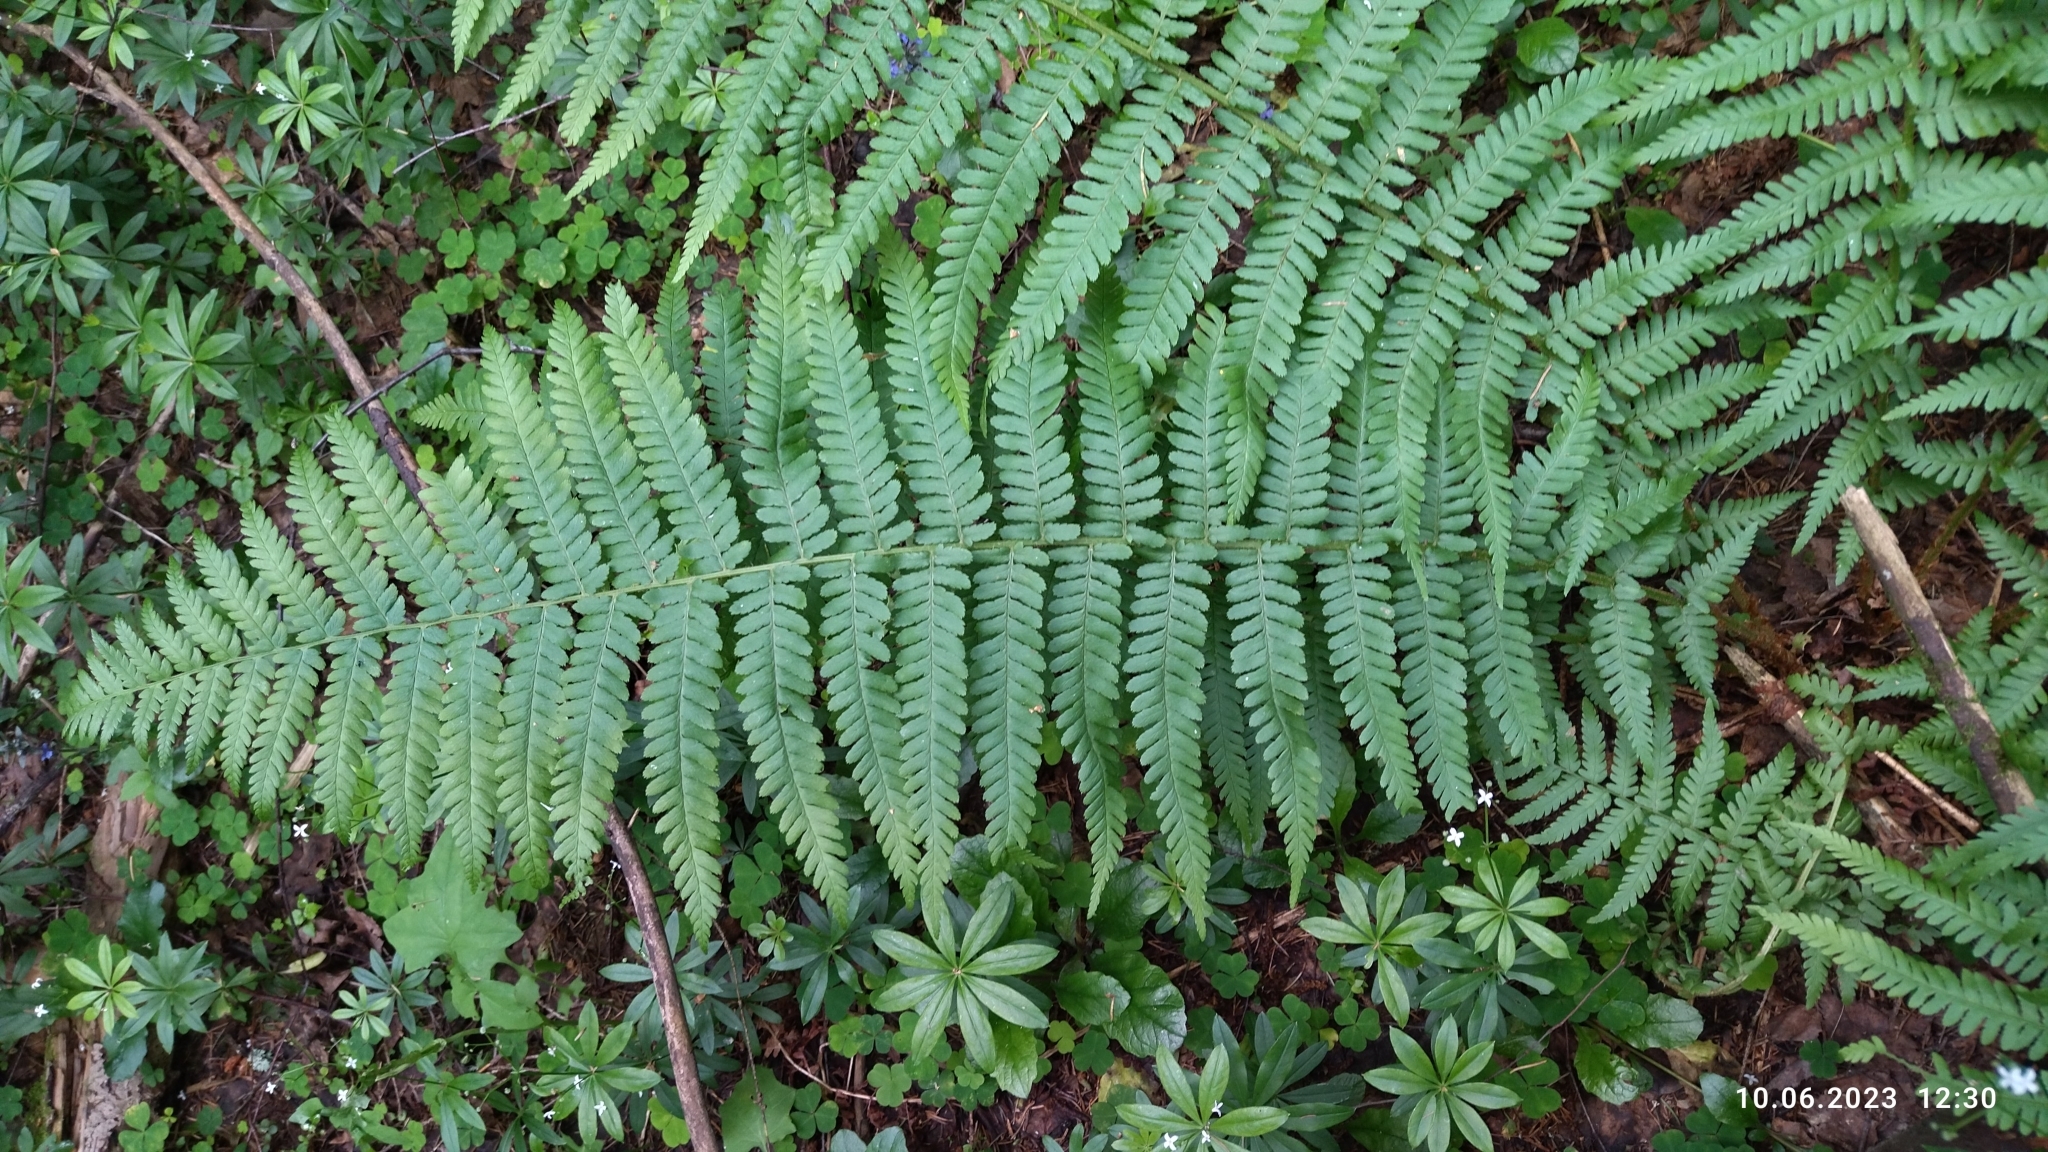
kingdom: Plantae
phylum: Tracheophyta
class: Polypodiopsida
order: Polypodiales
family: Dryopteridaceae
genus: Dryopteris
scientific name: Dryopteris filix-mas
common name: Male fern
